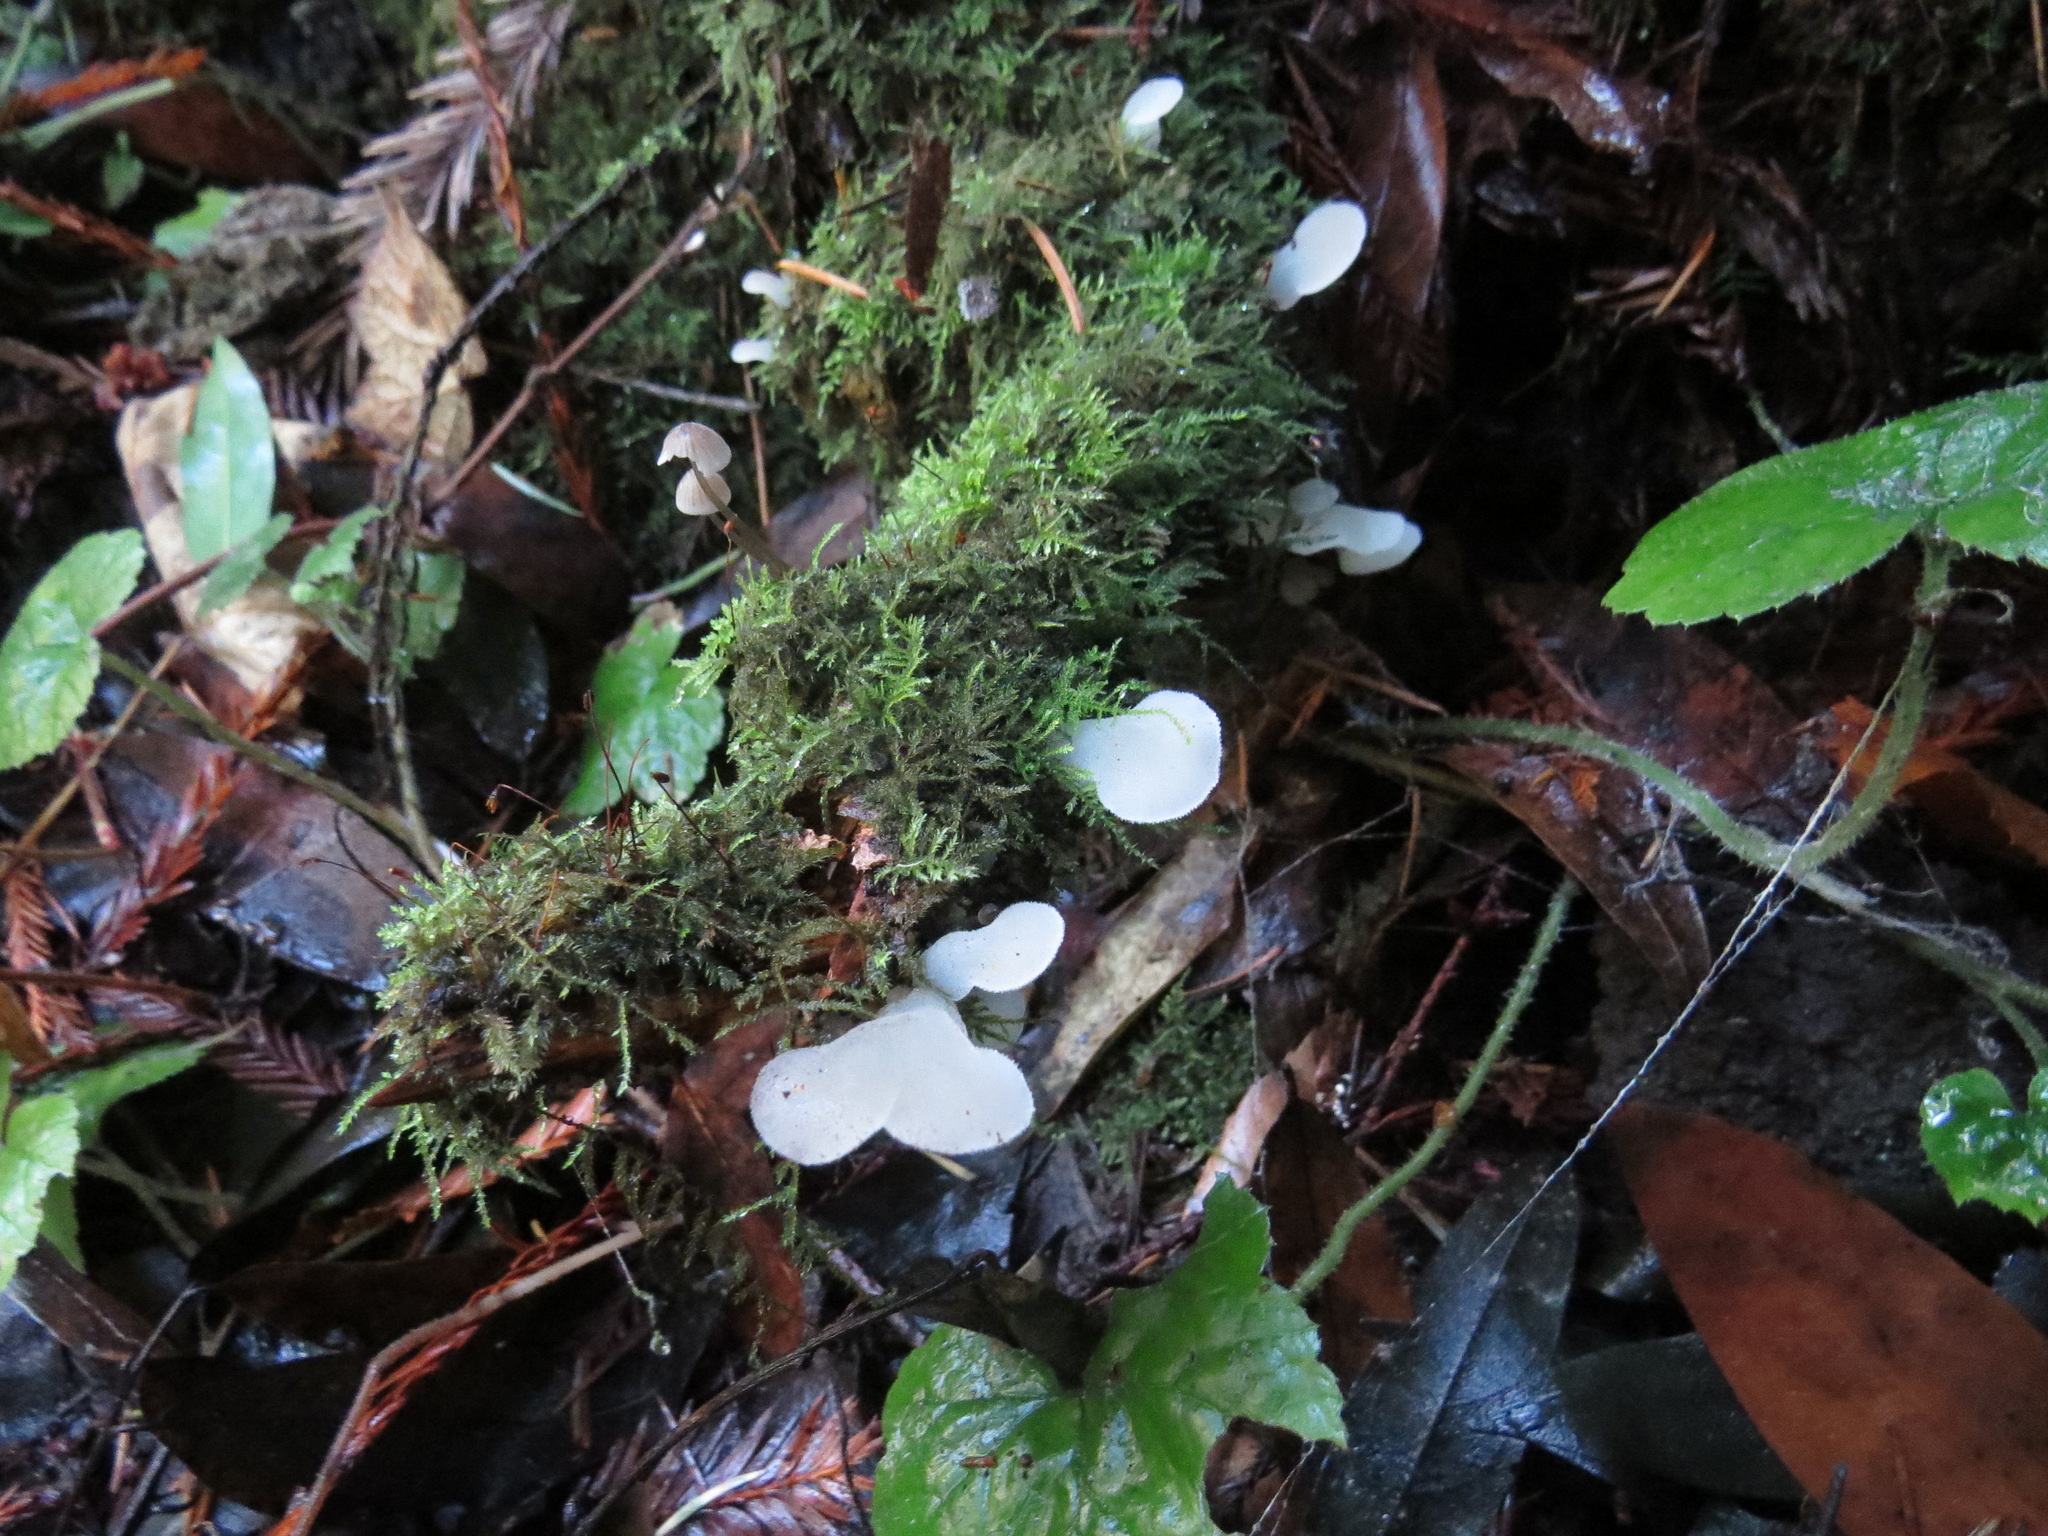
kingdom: Fungi
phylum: Basidiomycota
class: Agaricomycetes
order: Auriculariales
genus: Pseudohydnum
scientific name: Pseudohydnum gelatinosum
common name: Jelly tongue
